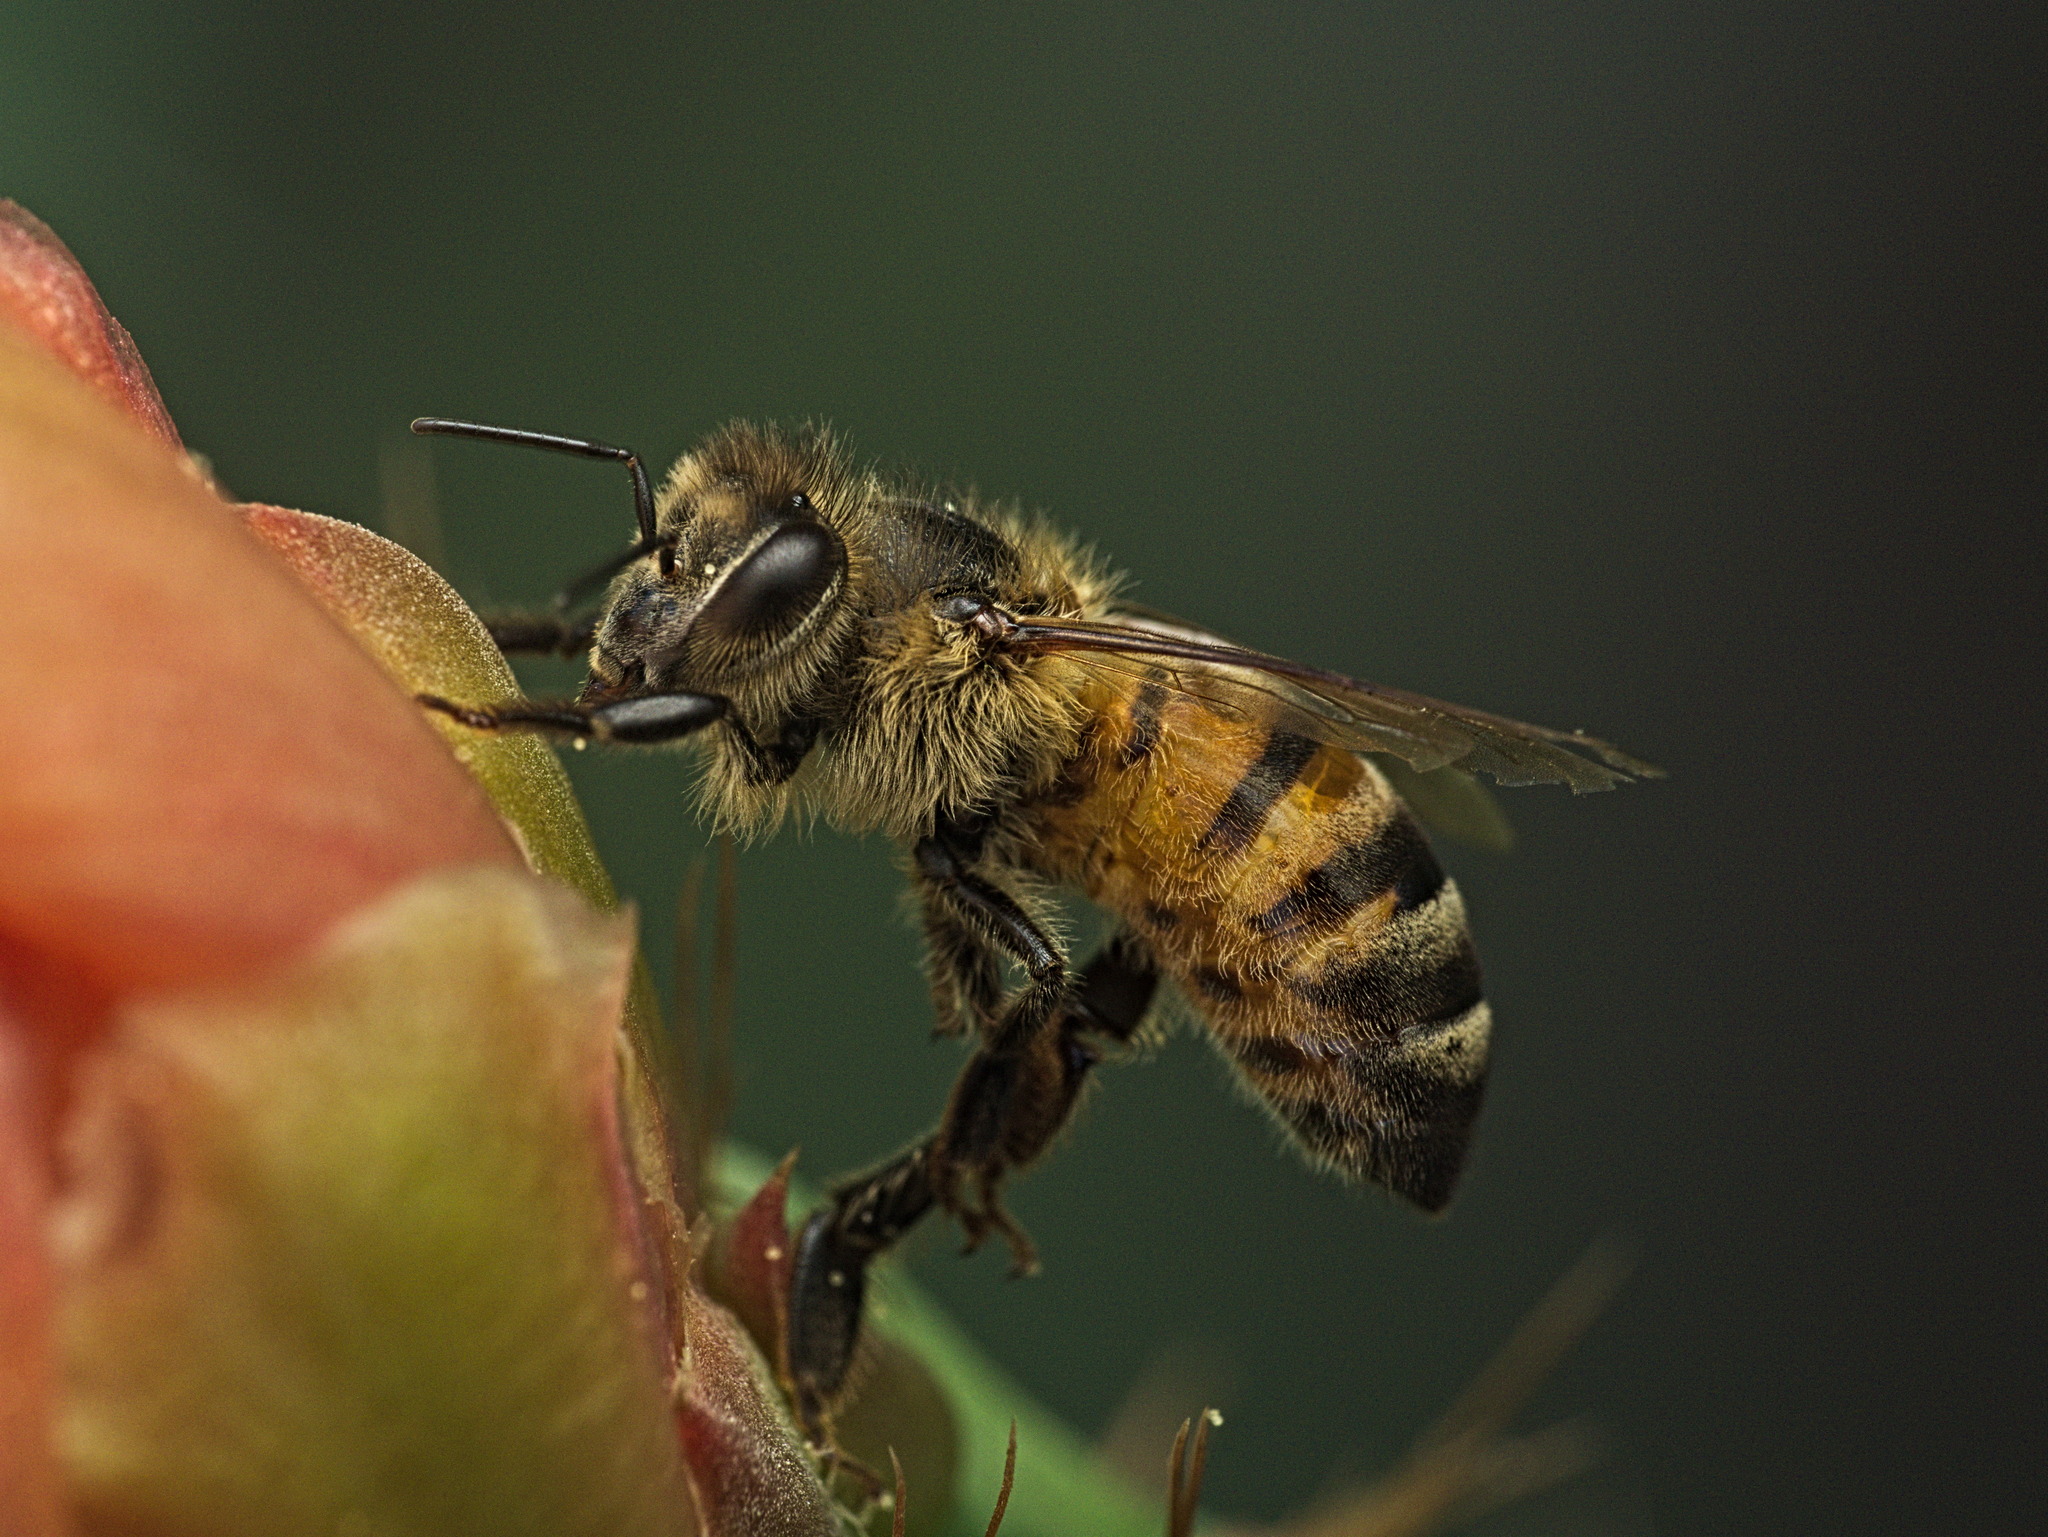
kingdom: Animalia
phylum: Arthropoda
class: Insecta
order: Hymenoptera
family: Apidae
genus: Apis
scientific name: Apis mellifera
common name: Honey bee
